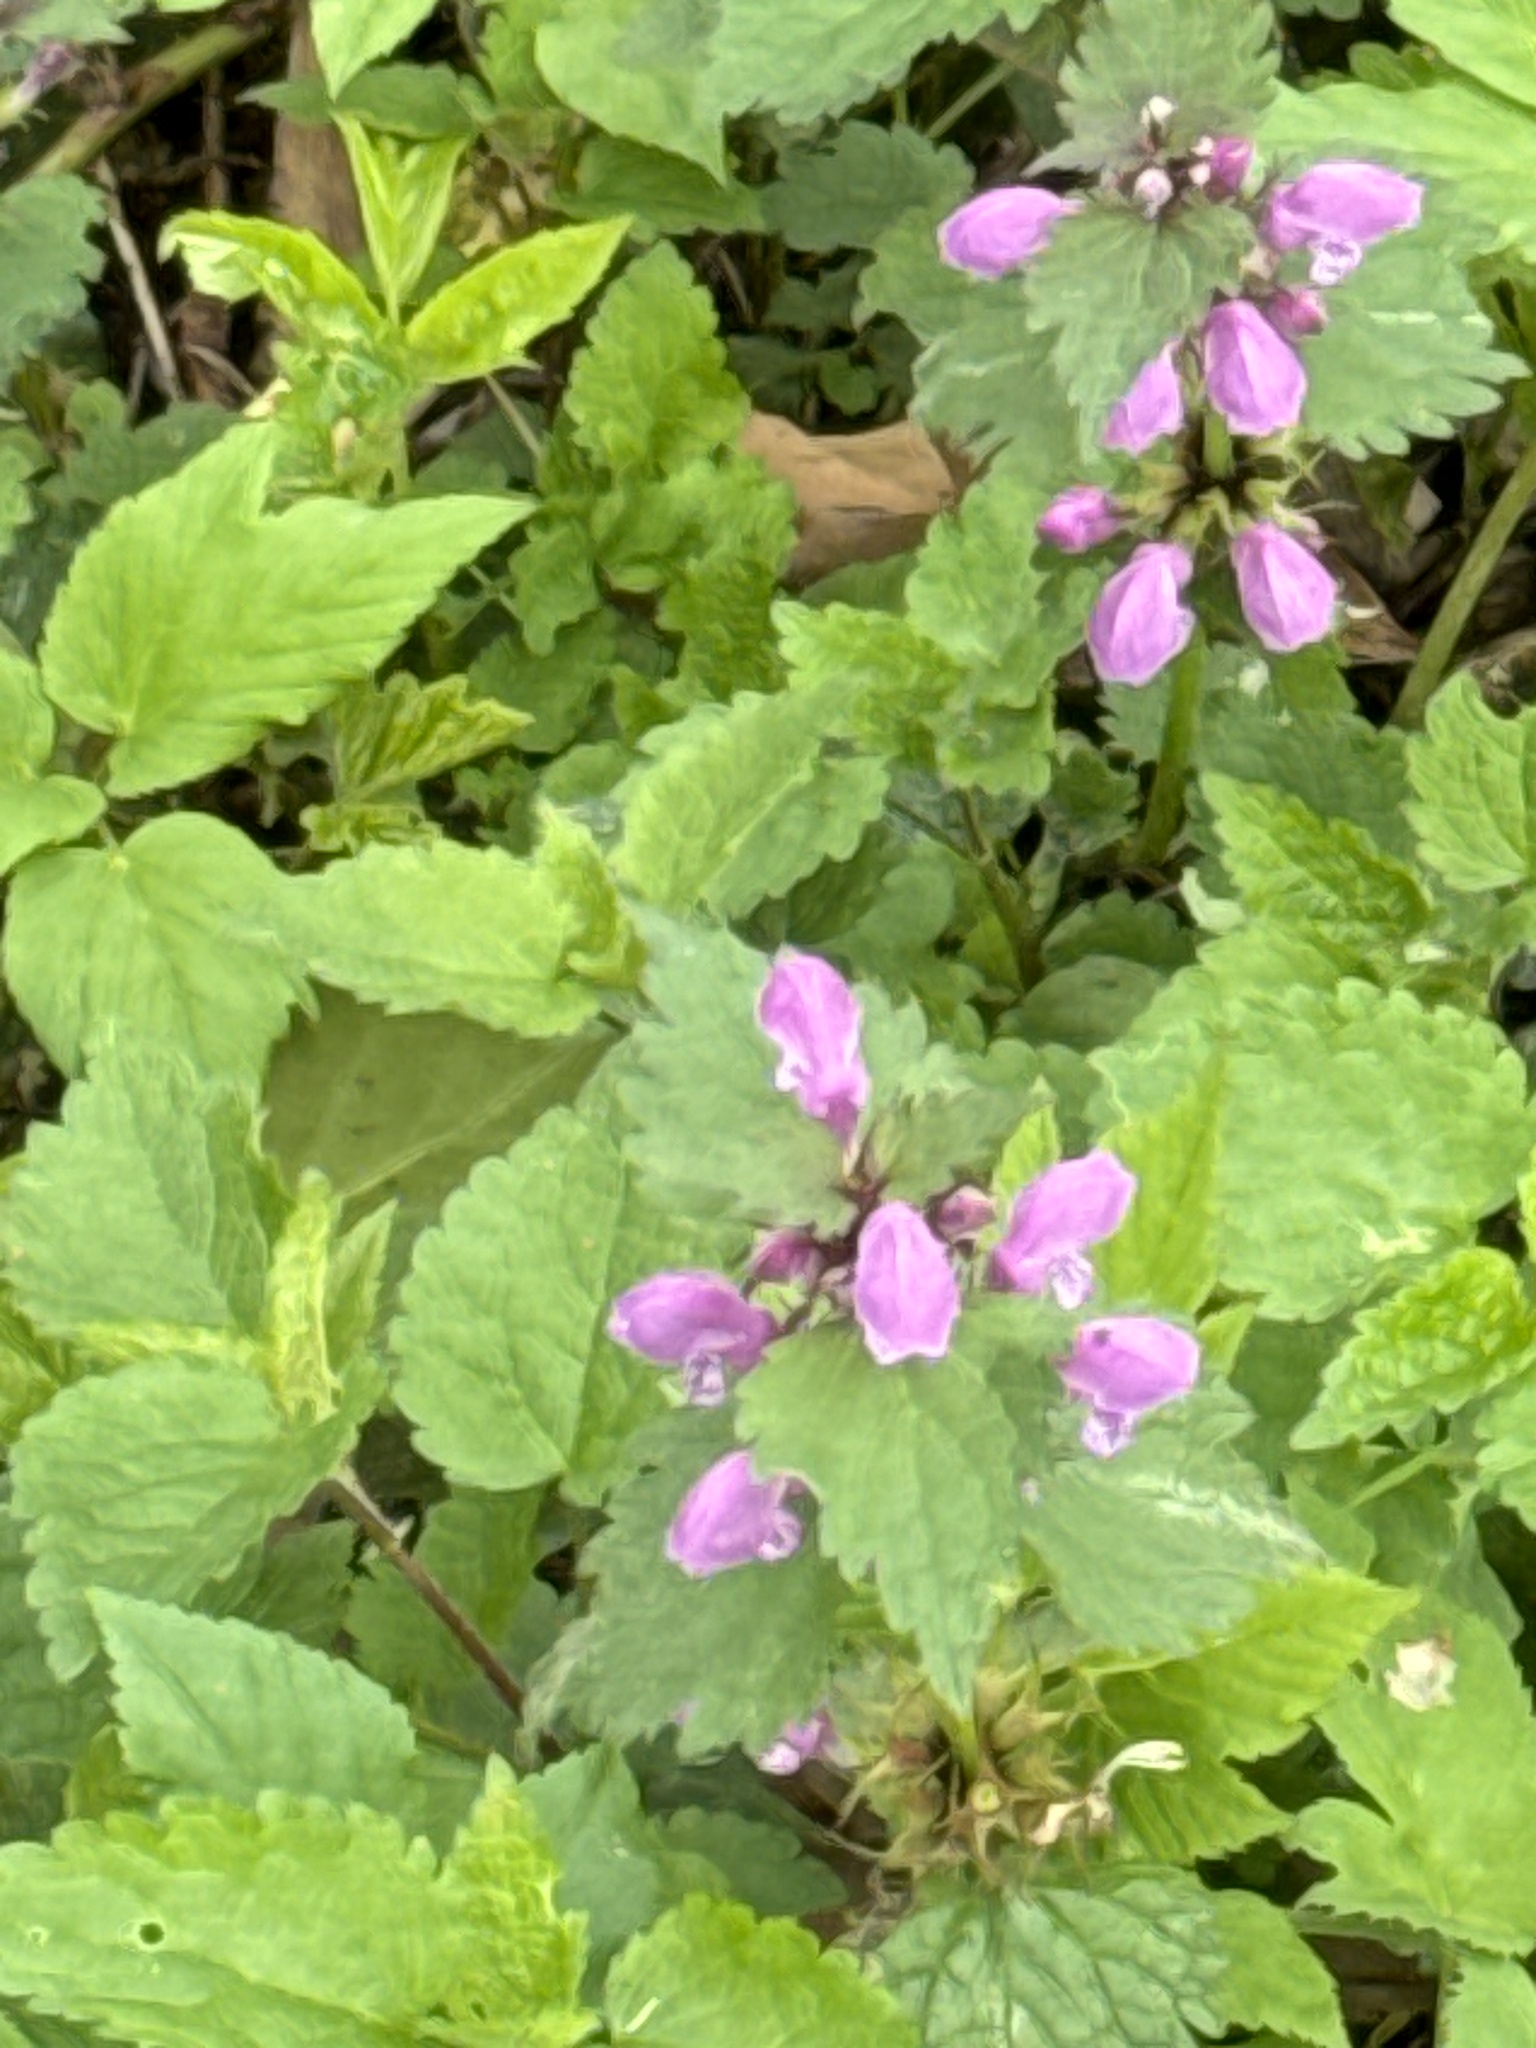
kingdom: Plantae
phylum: Tracheophyta
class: Magnoliopsida
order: Lamiales
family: Lamiaceae
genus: Lamium
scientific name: Lamium maculatum
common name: Spotted dead-nettle
